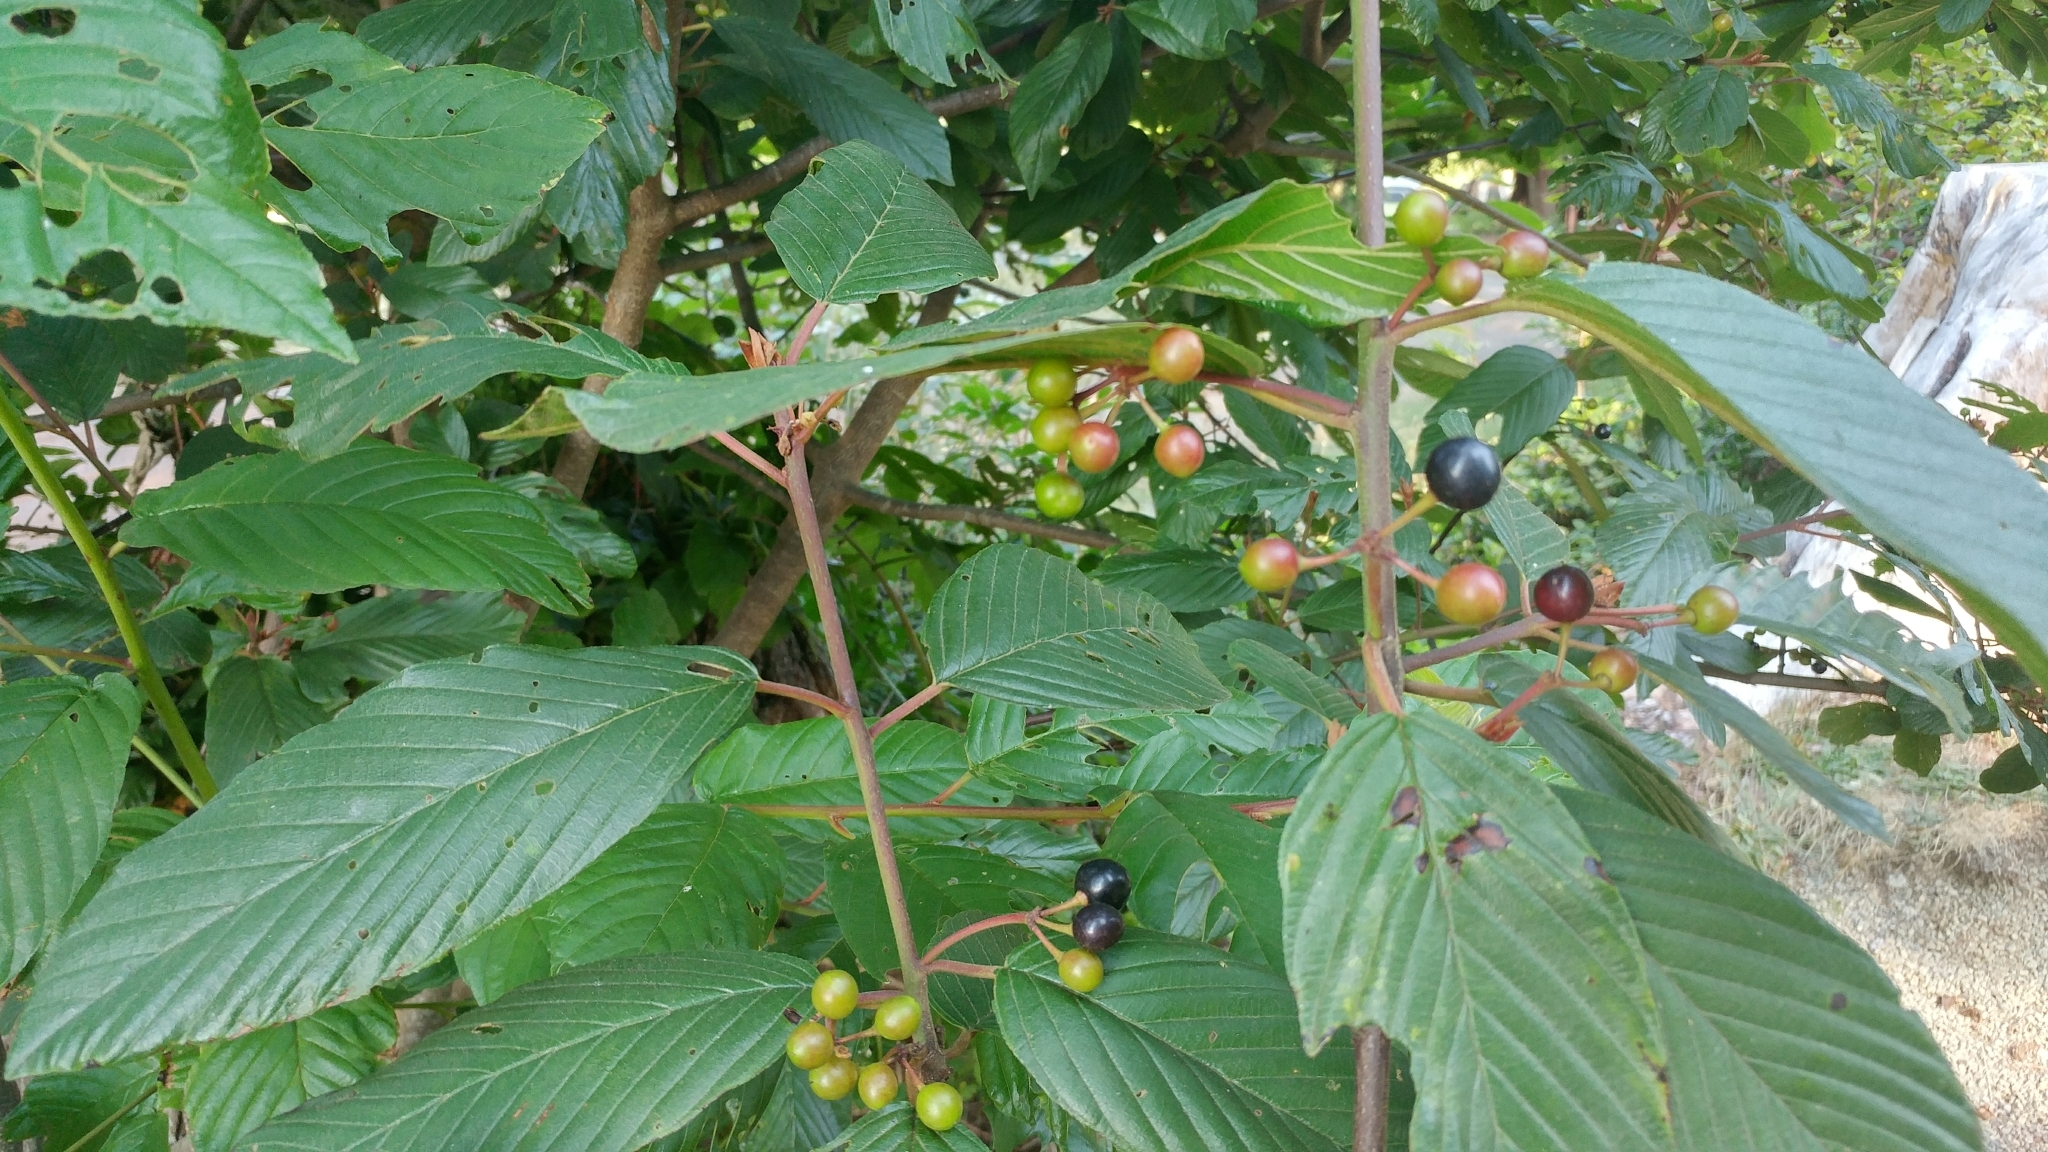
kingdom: Plantae
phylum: Tracheophyta
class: Magnoliopsida
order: Rosales
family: Rhamnaceae
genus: Frangula
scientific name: Frangula purshiana
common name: Cascara buckthorn
